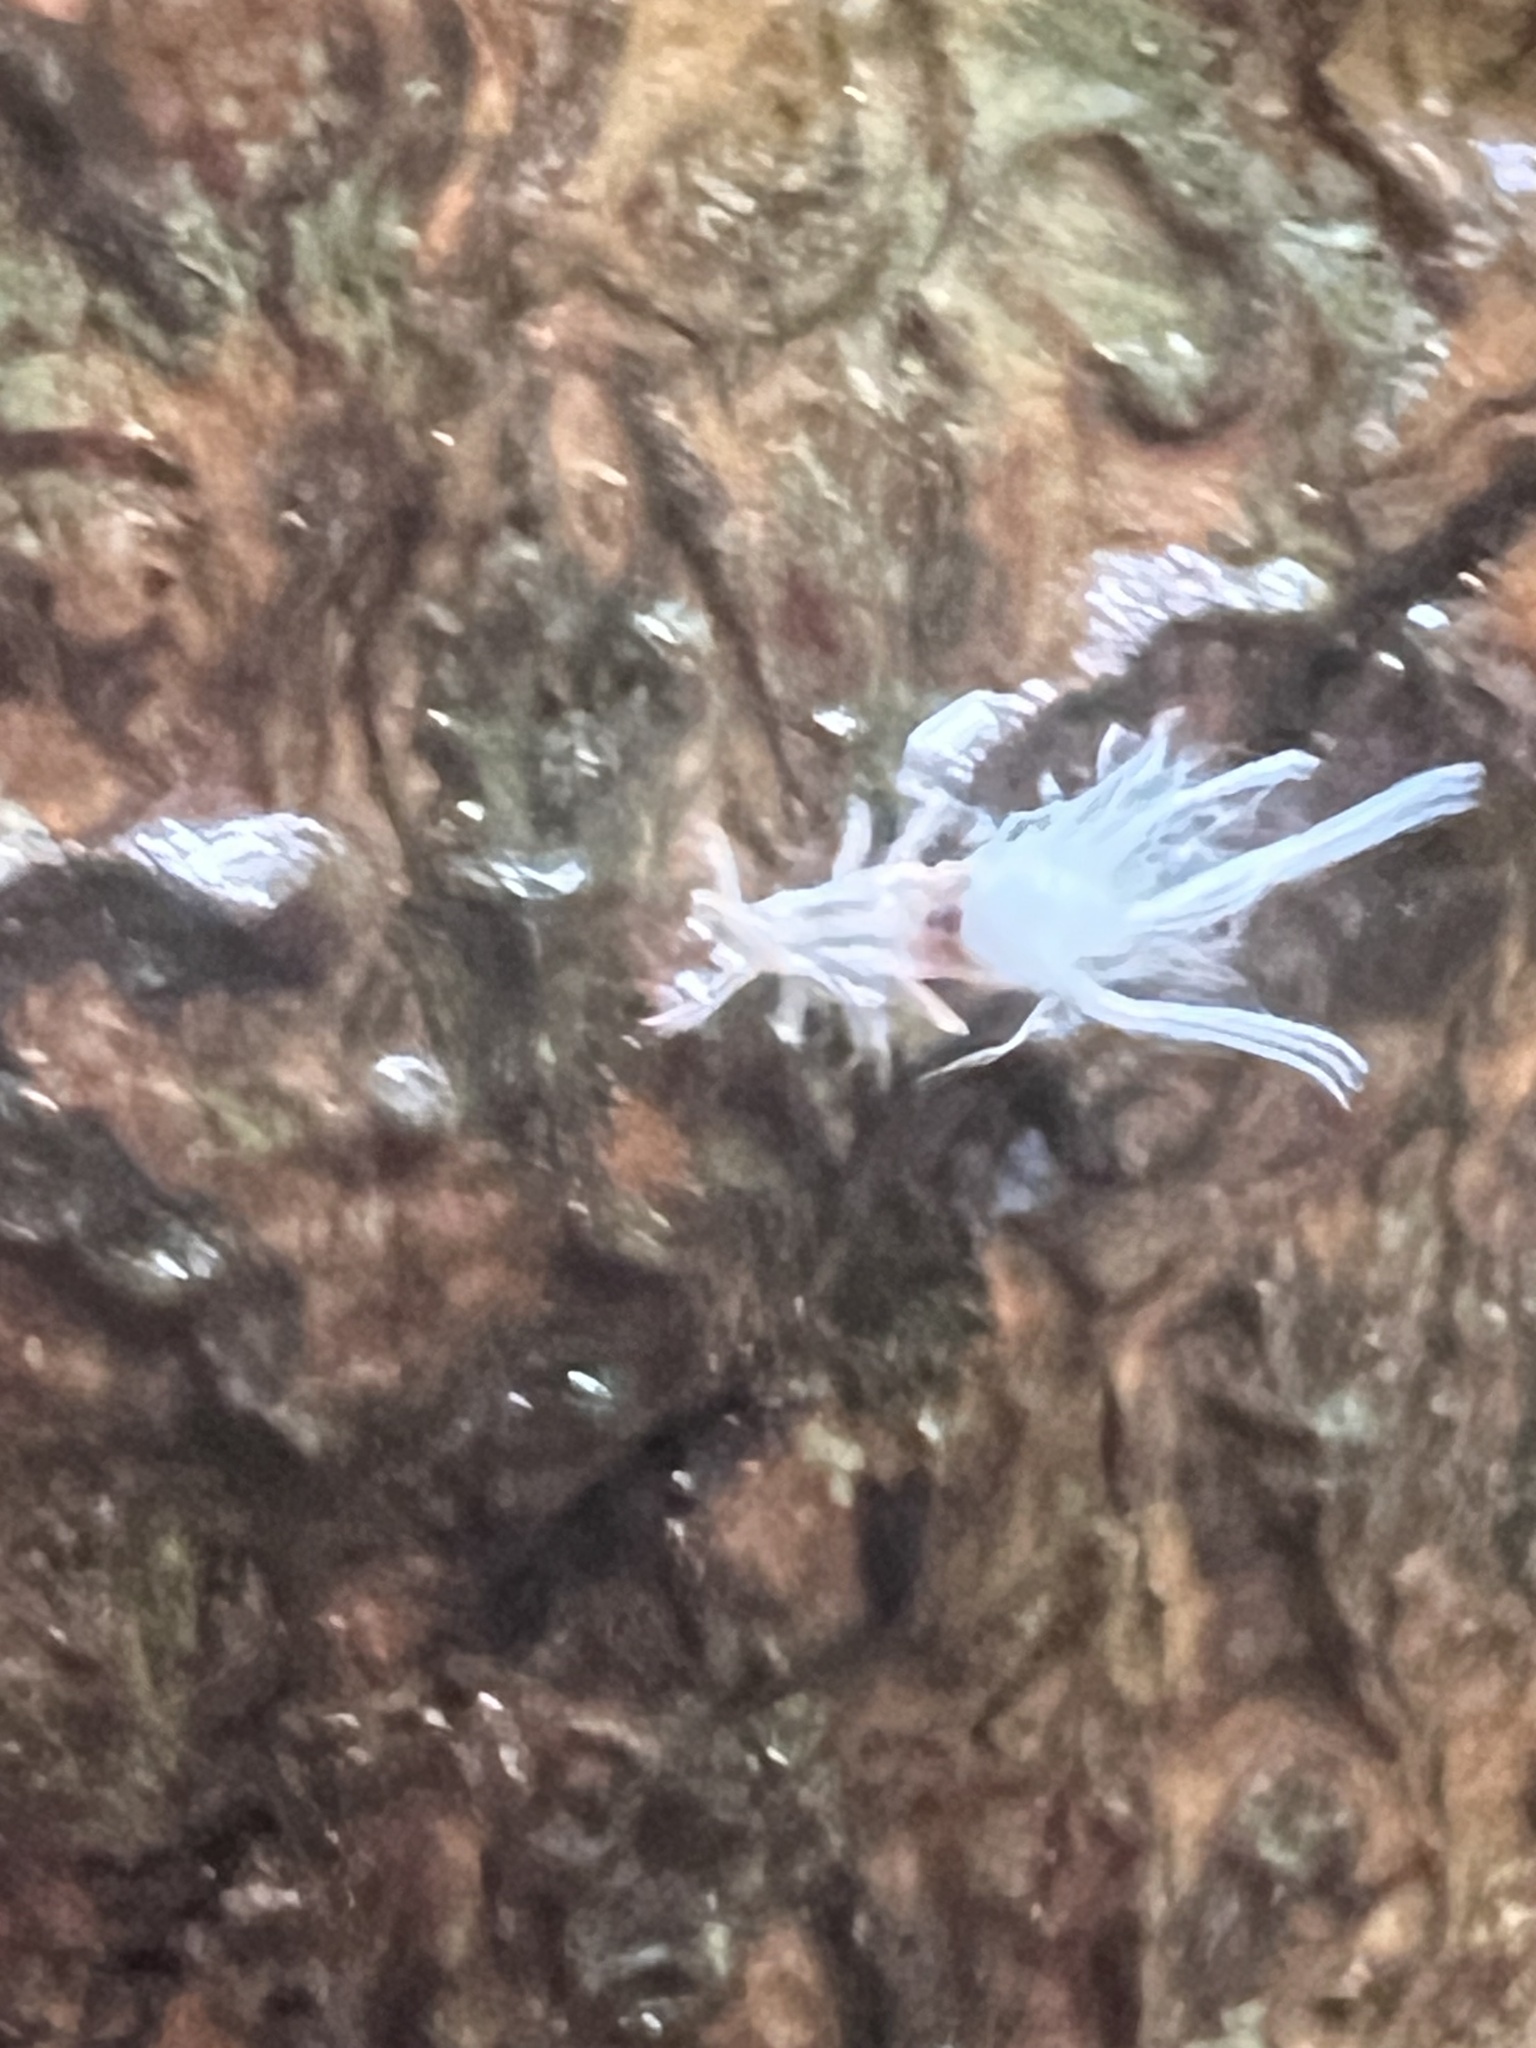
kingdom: Animalia
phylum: Arthropoda
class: Insecta
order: Hemiptera
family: Aphididae
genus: Grylloprociphilus
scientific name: Grylloprociphilus imbricator
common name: Beech blight aphid
